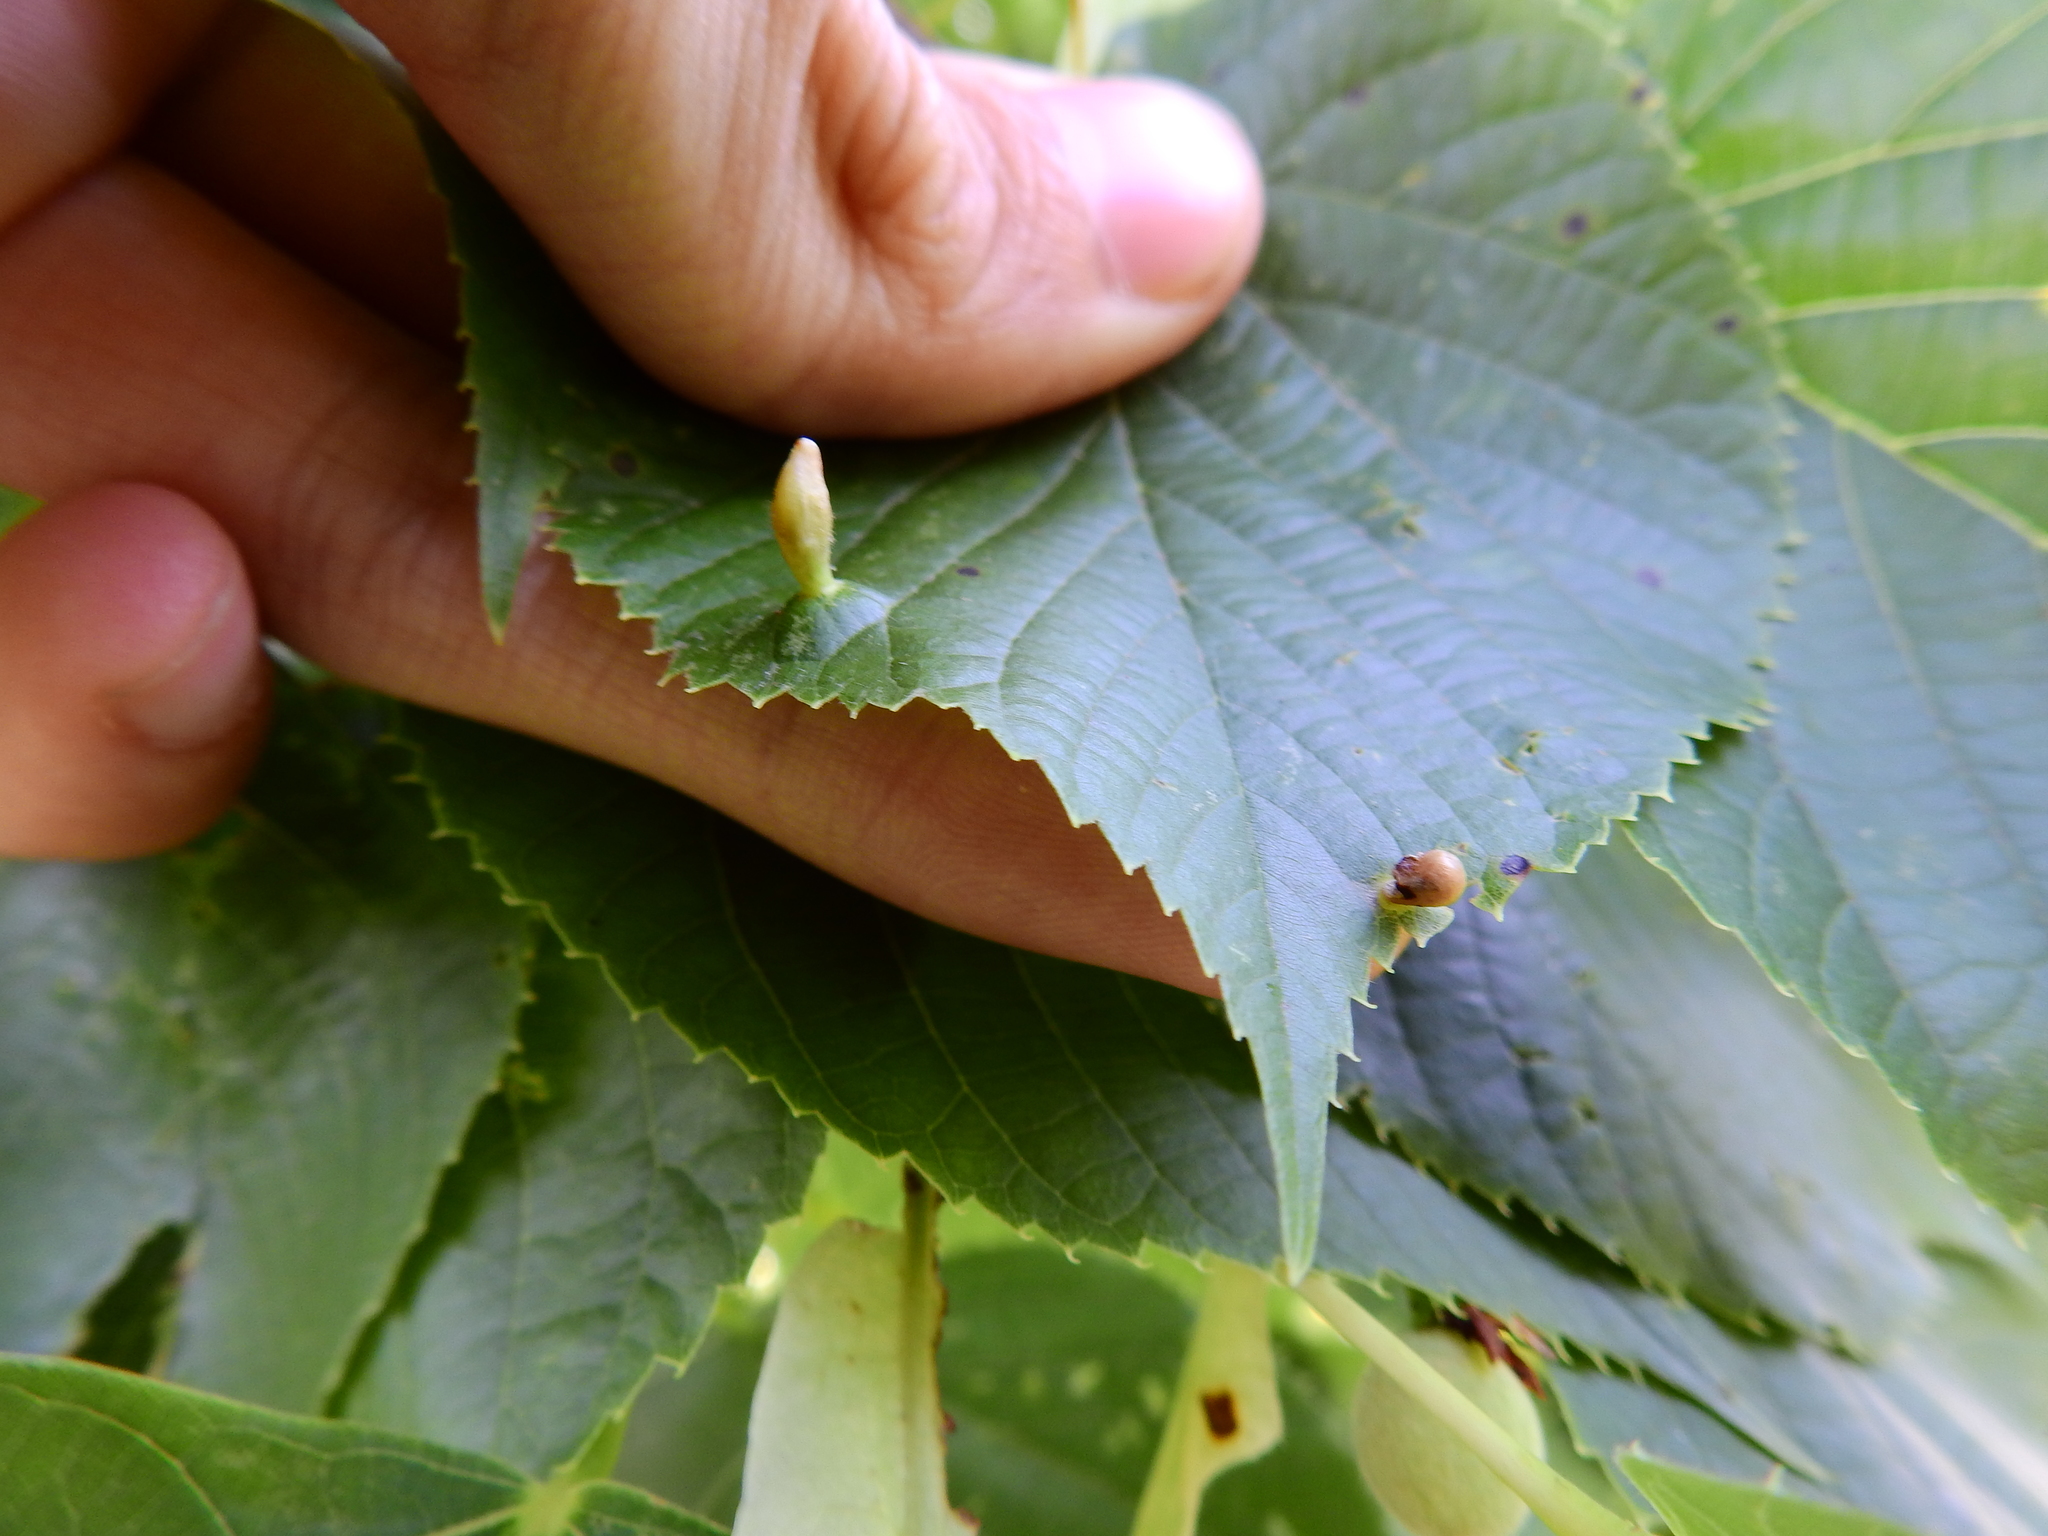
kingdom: Animalia
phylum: Arthropoda
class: Arachnida
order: Trombidiformes
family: Eriophyidae
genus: Eriophyes
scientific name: Eriophyes tiliae
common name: Red nail gall mite
